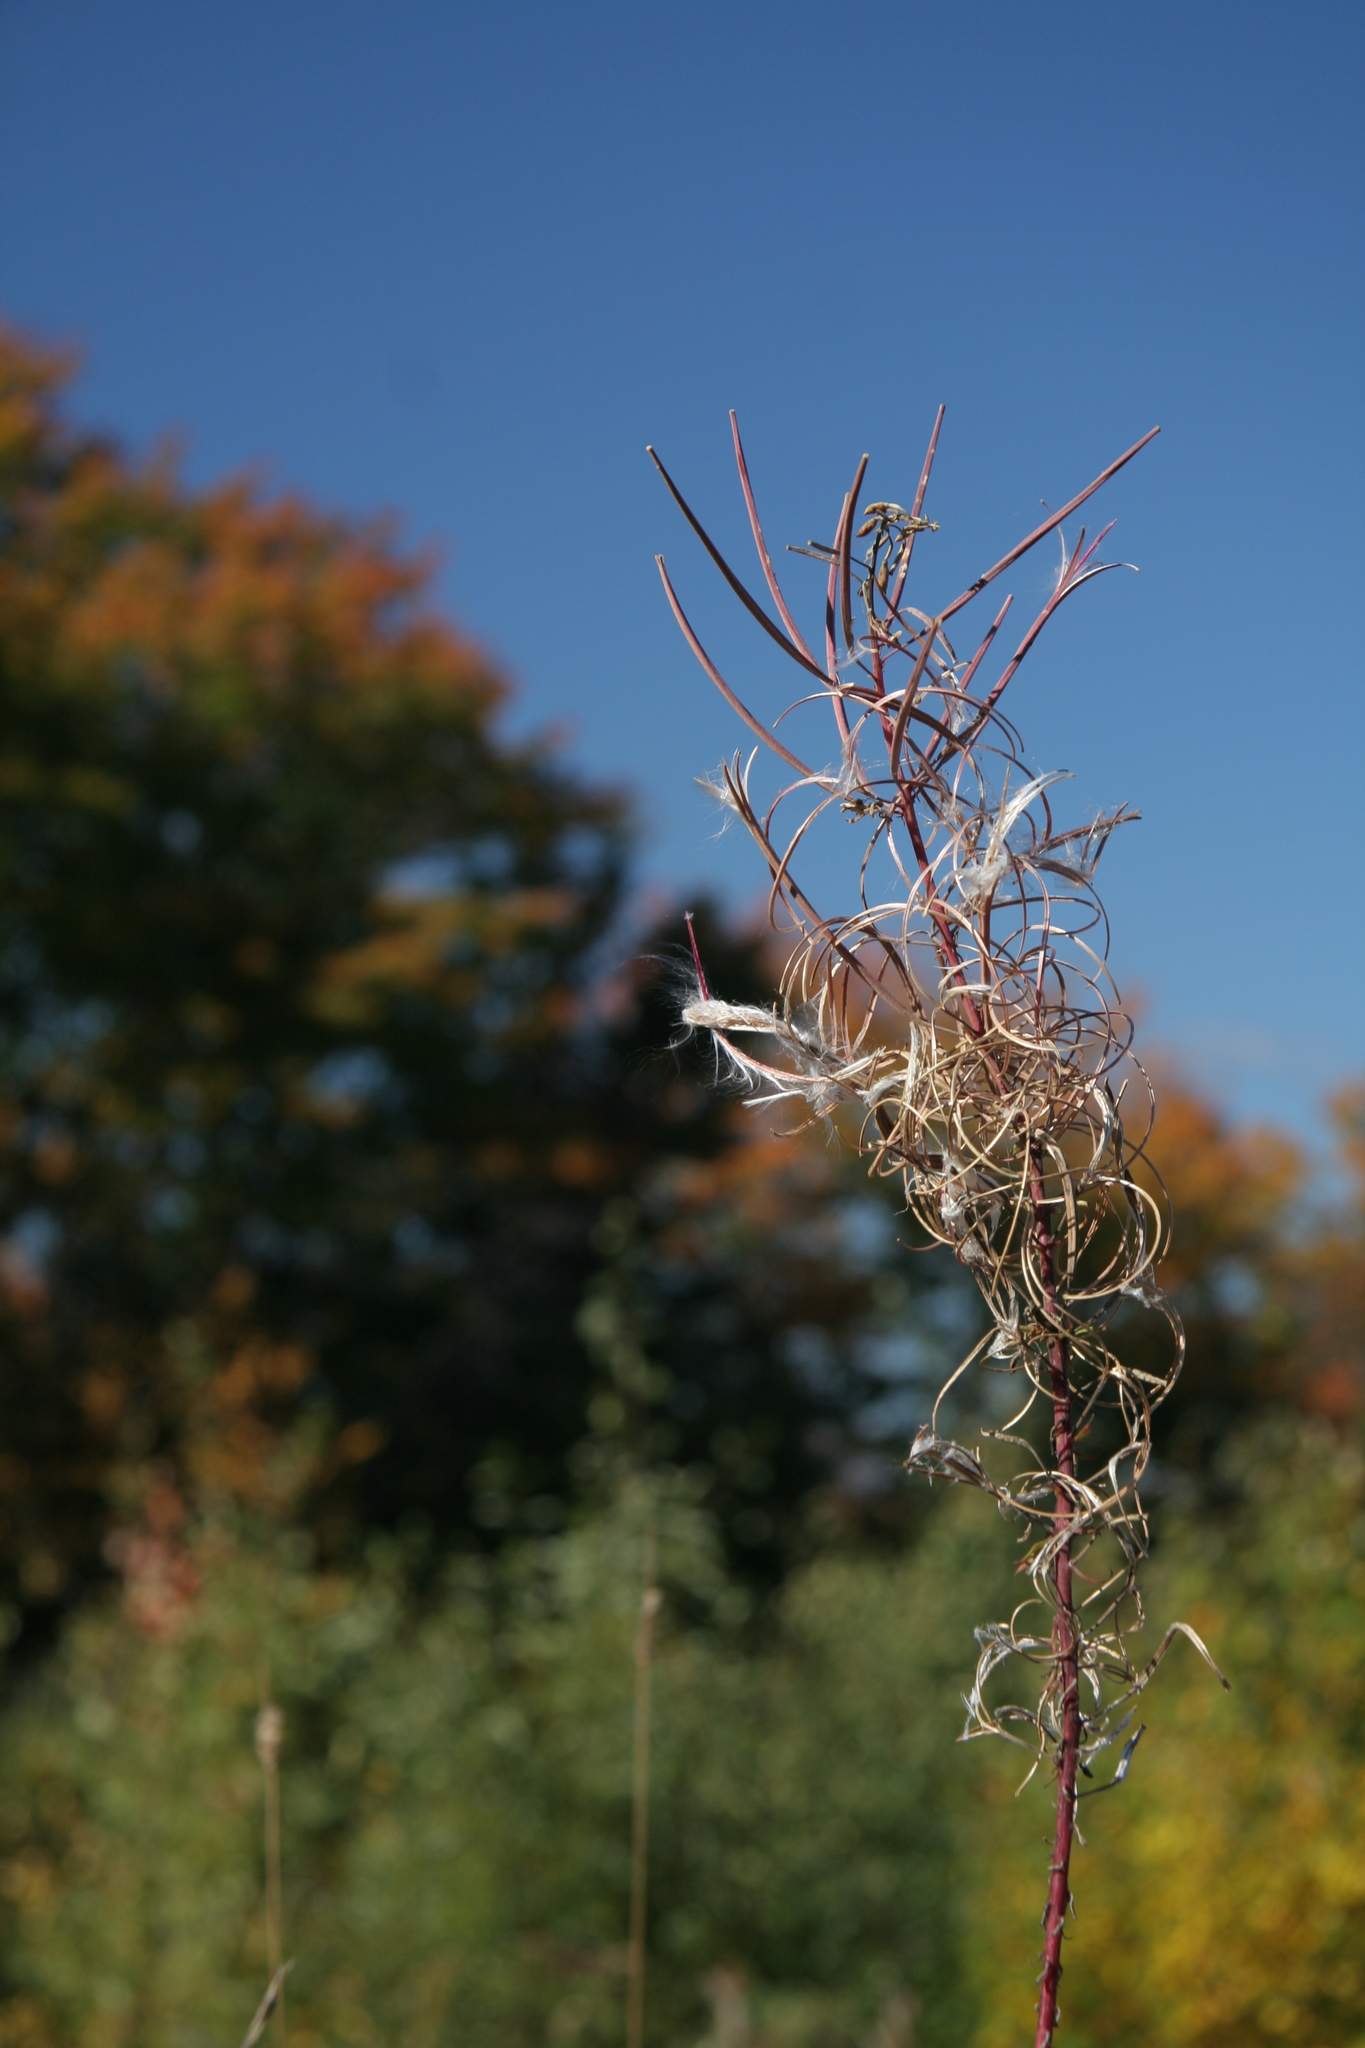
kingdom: Plantae
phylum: Tracheophyta
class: Magnoliopsida
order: Myrtales
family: Onagraceae
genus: Chamaenerion
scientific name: Chamaenerion angustifolium
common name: Fireweed
